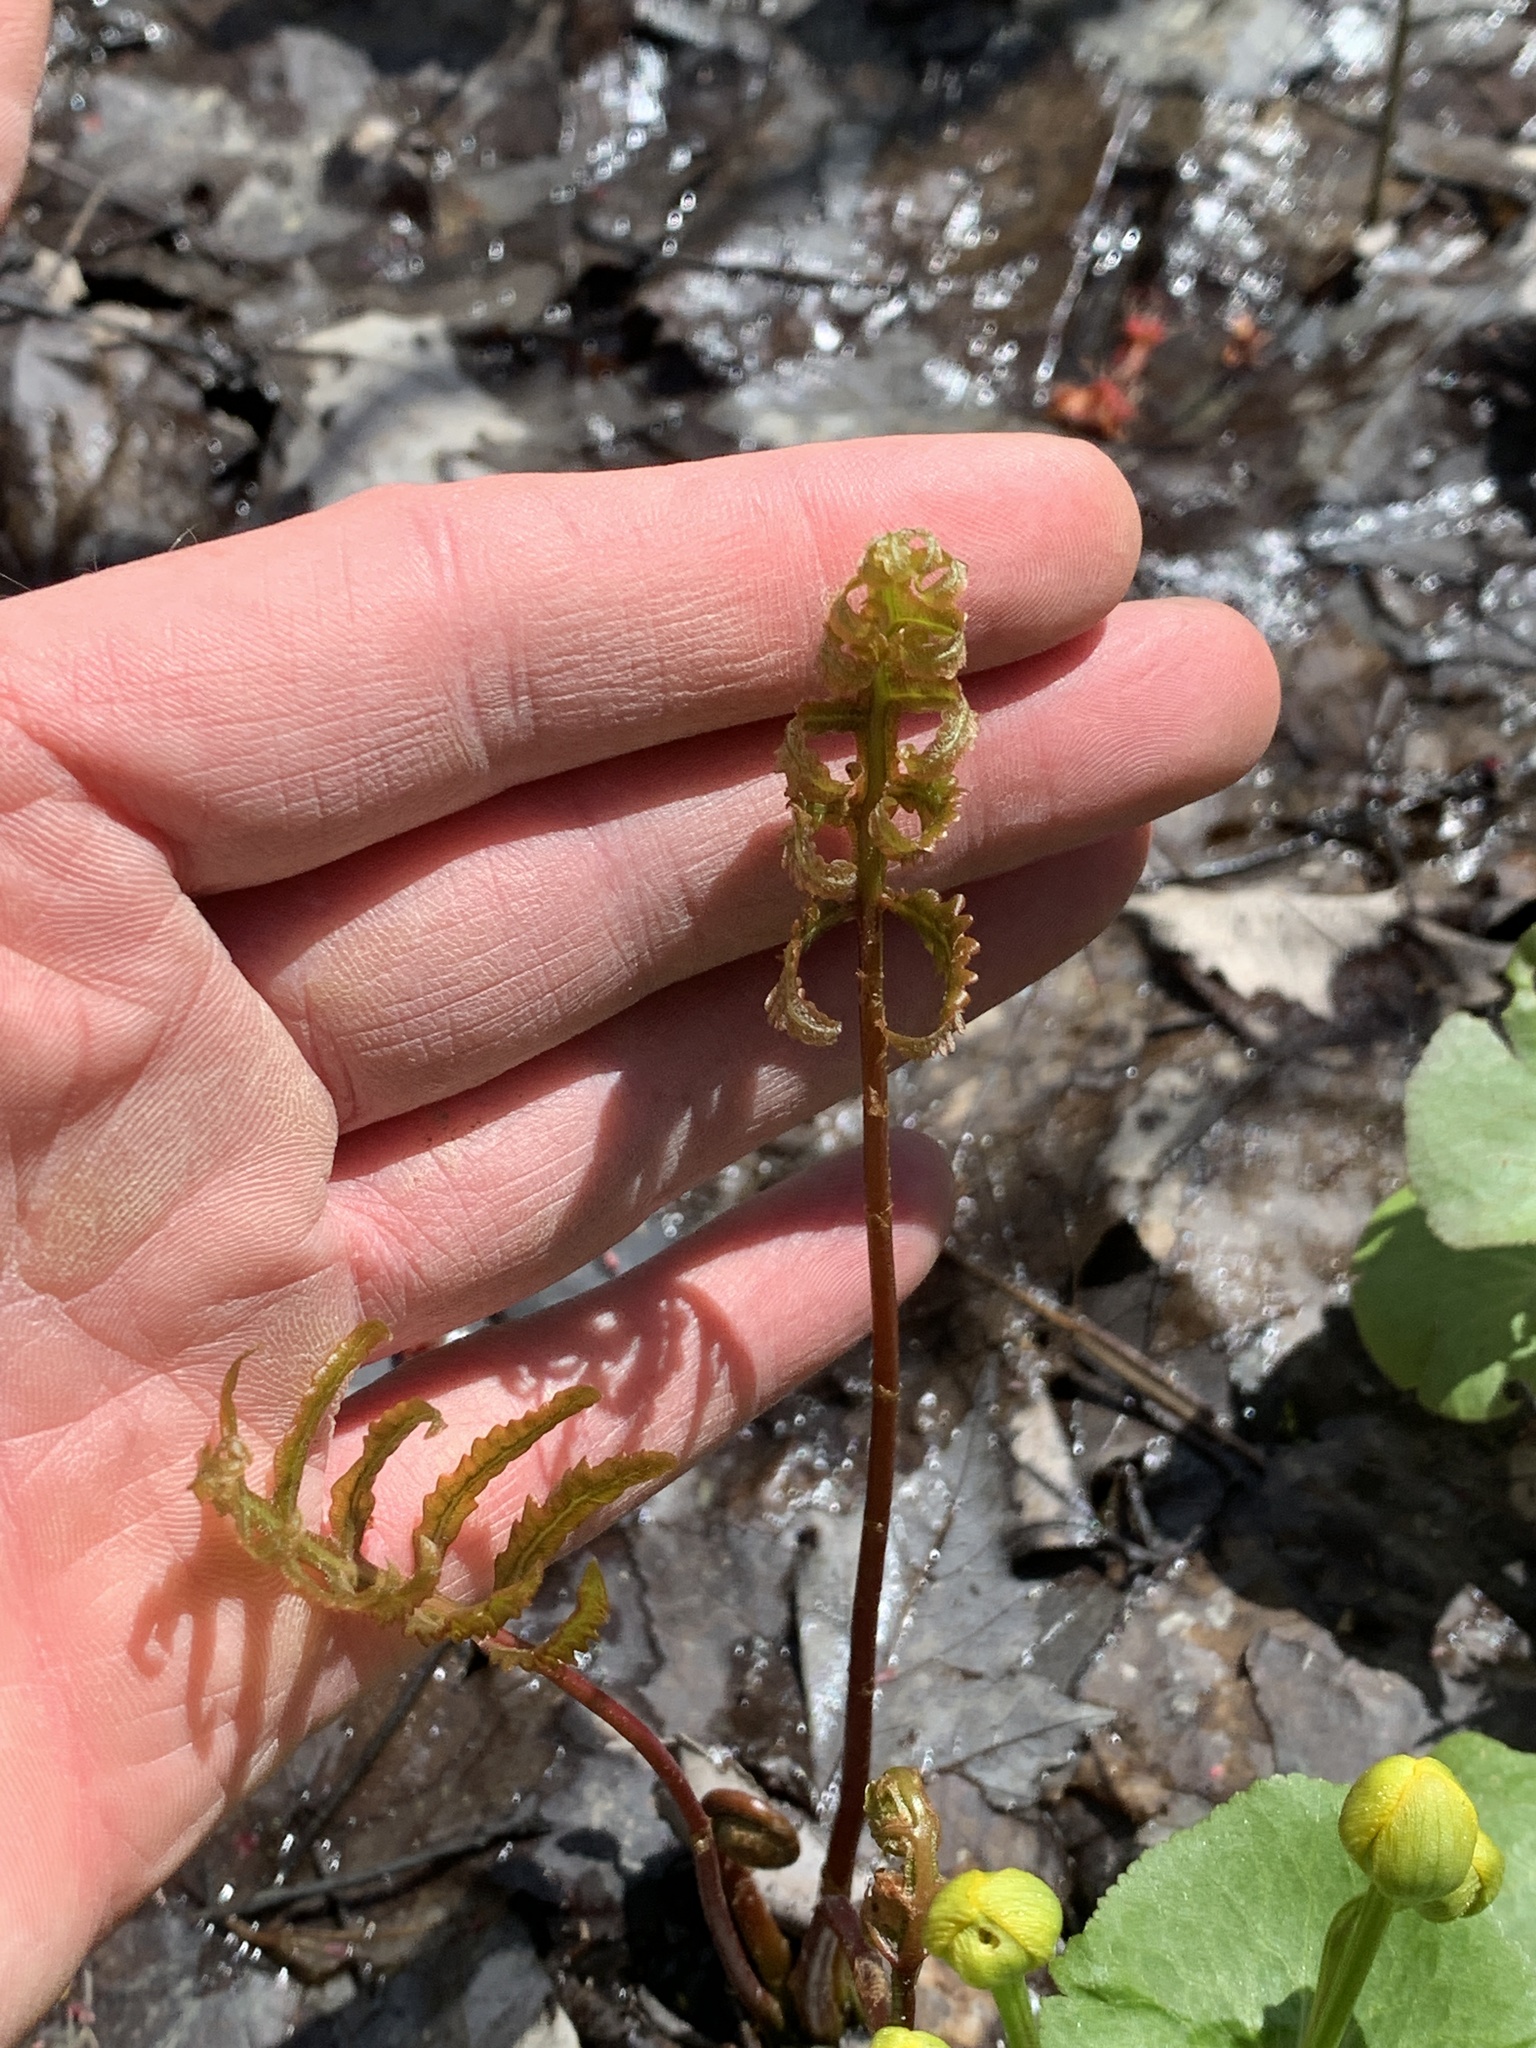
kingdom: Plantae
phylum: Tracheophyta
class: Polypodiopsida
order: Polypodiales
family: Onocleaceae
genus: Onoclea
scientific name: Onoclea sensibilis
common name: Sensitive fern
